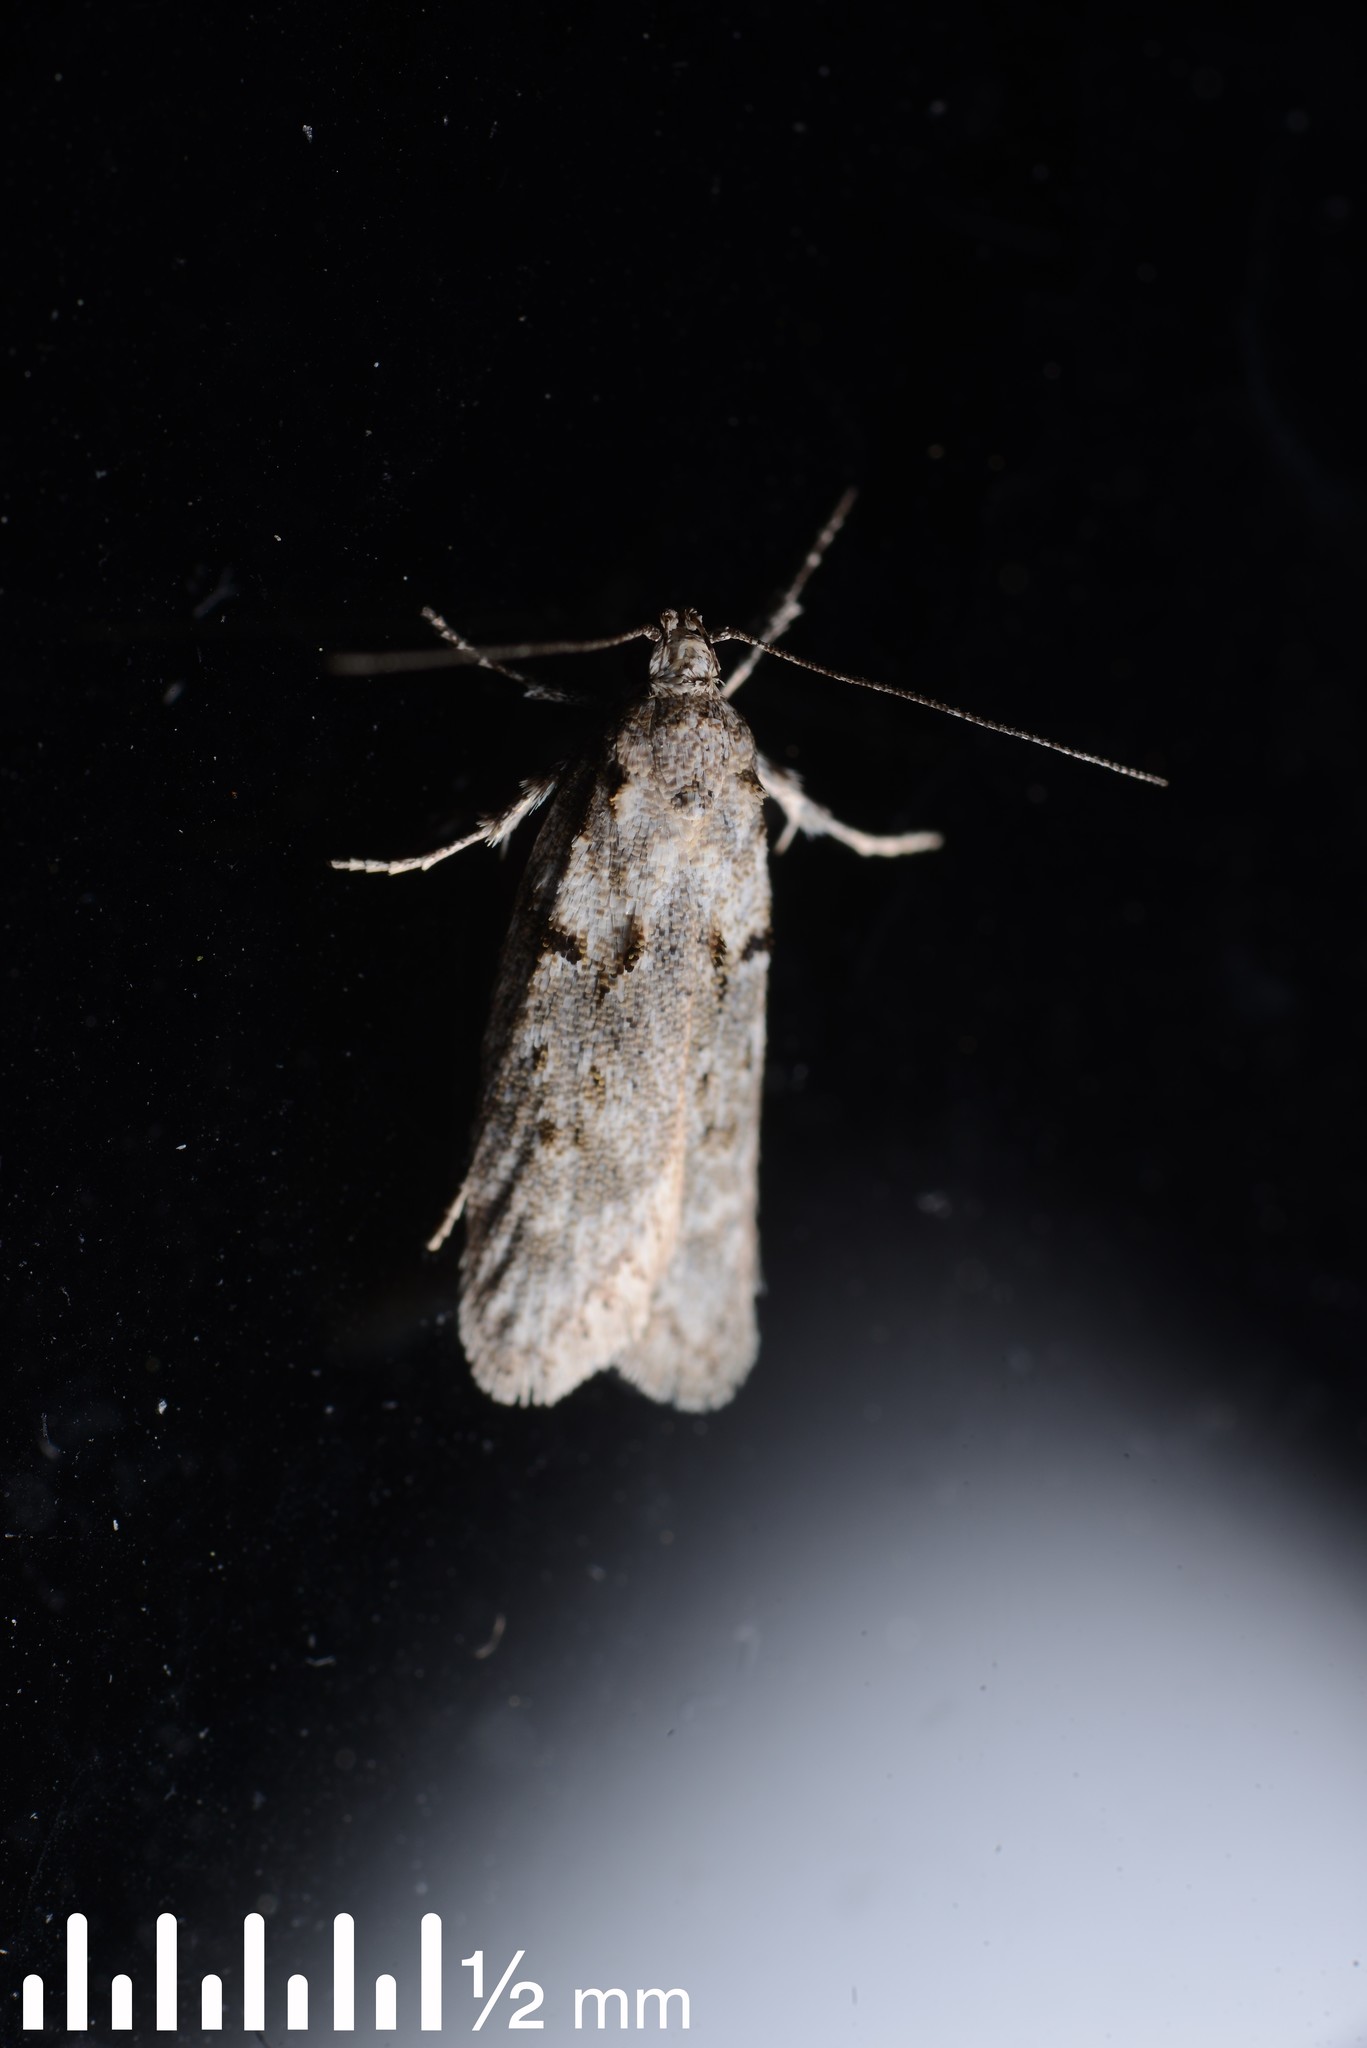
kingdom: Animalia
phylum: Arthropoda
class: Insecta
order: Lepidoptera
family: Oecophoridae
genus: Izatha
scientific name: Izatha convulsella
